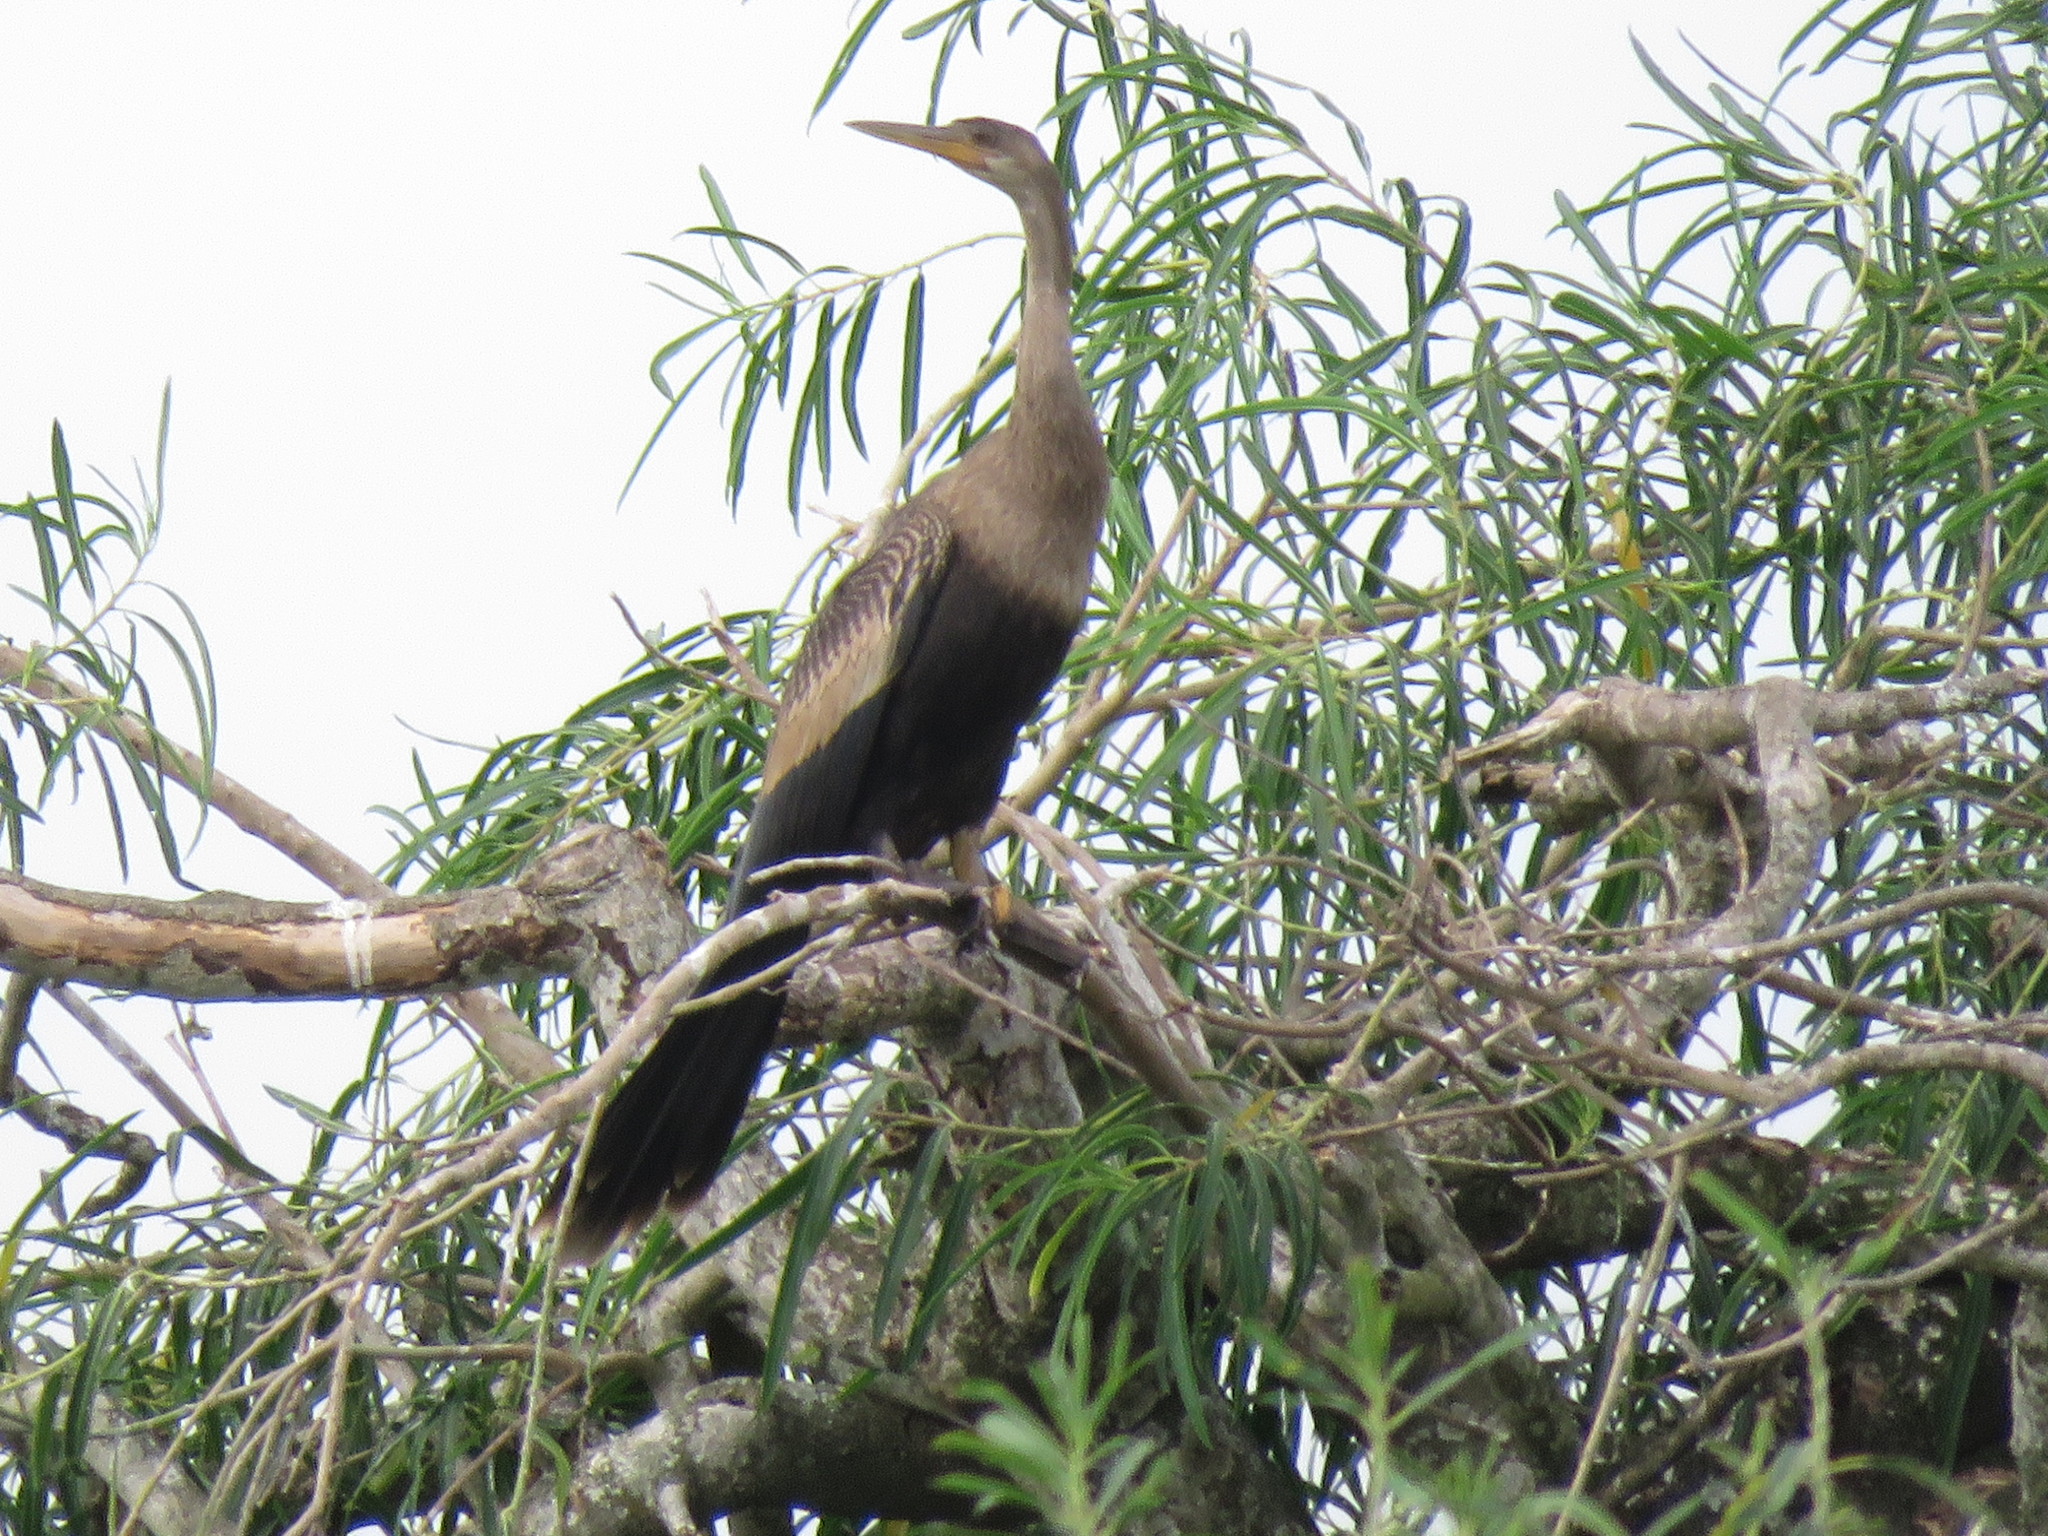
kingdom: Animalia
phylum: Chordata
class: Aves
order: Suliformes
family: Anhingidae
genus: Anhinga
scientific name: Anhinga anhinga
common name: Anhinga
